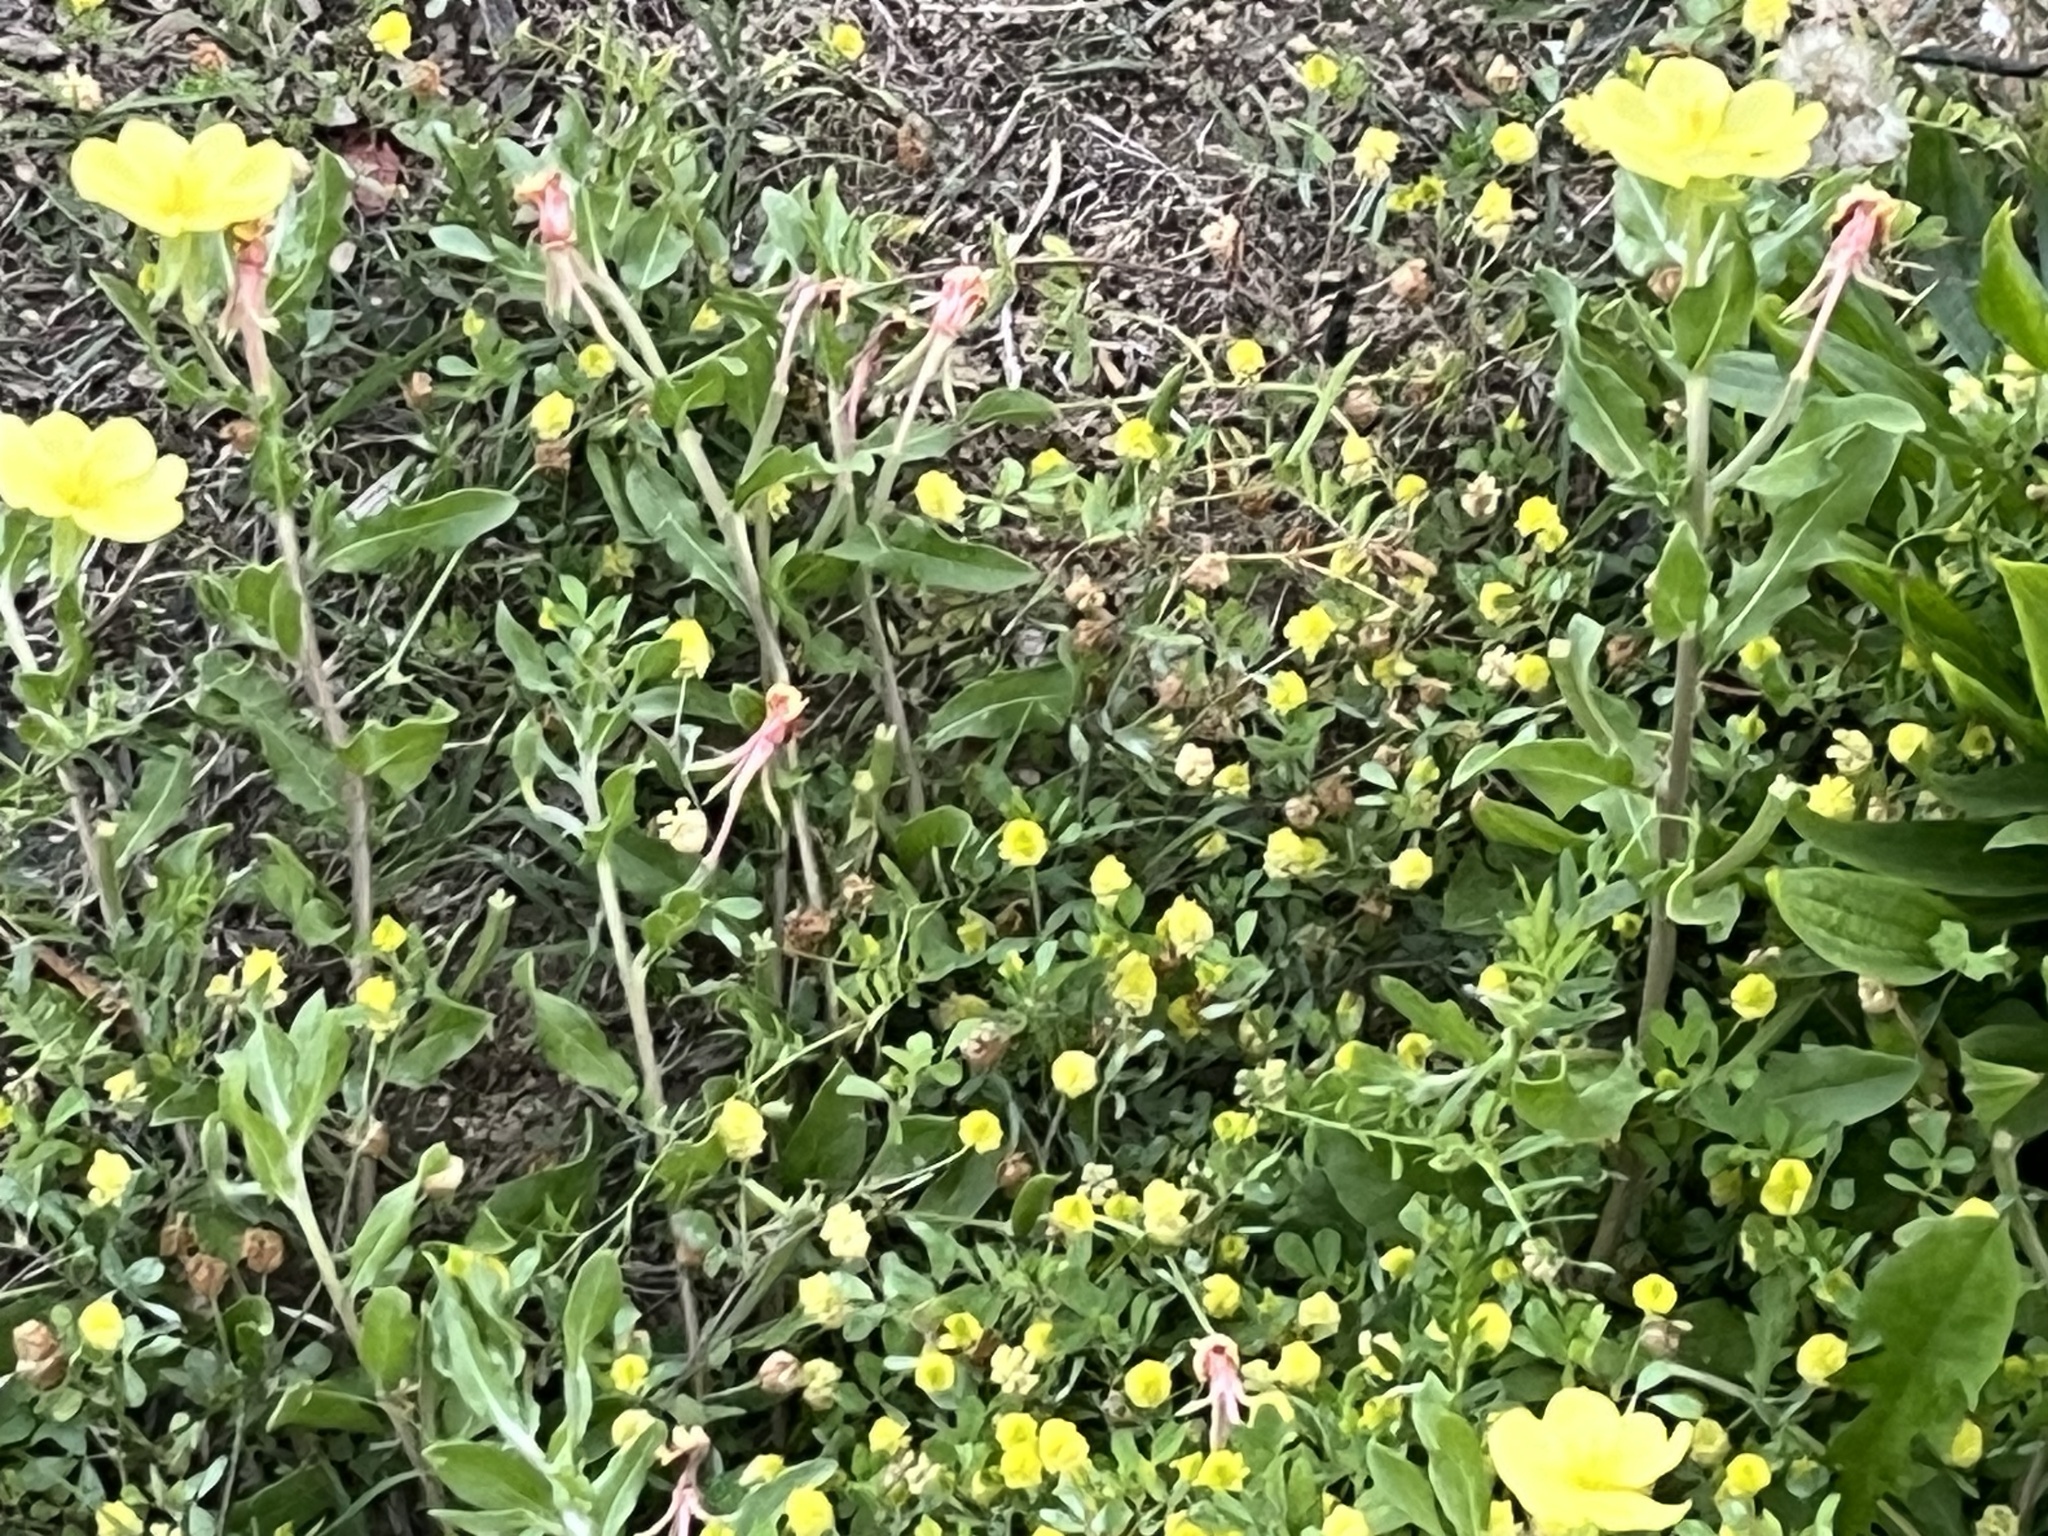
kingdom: Plantae
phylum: Tracheophyta
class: Magnoliopsida
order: Myrtales
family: Onagraceae
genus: Oenothera
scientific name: Oenothera laciniata
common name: Cut-leaved evening-primrose
